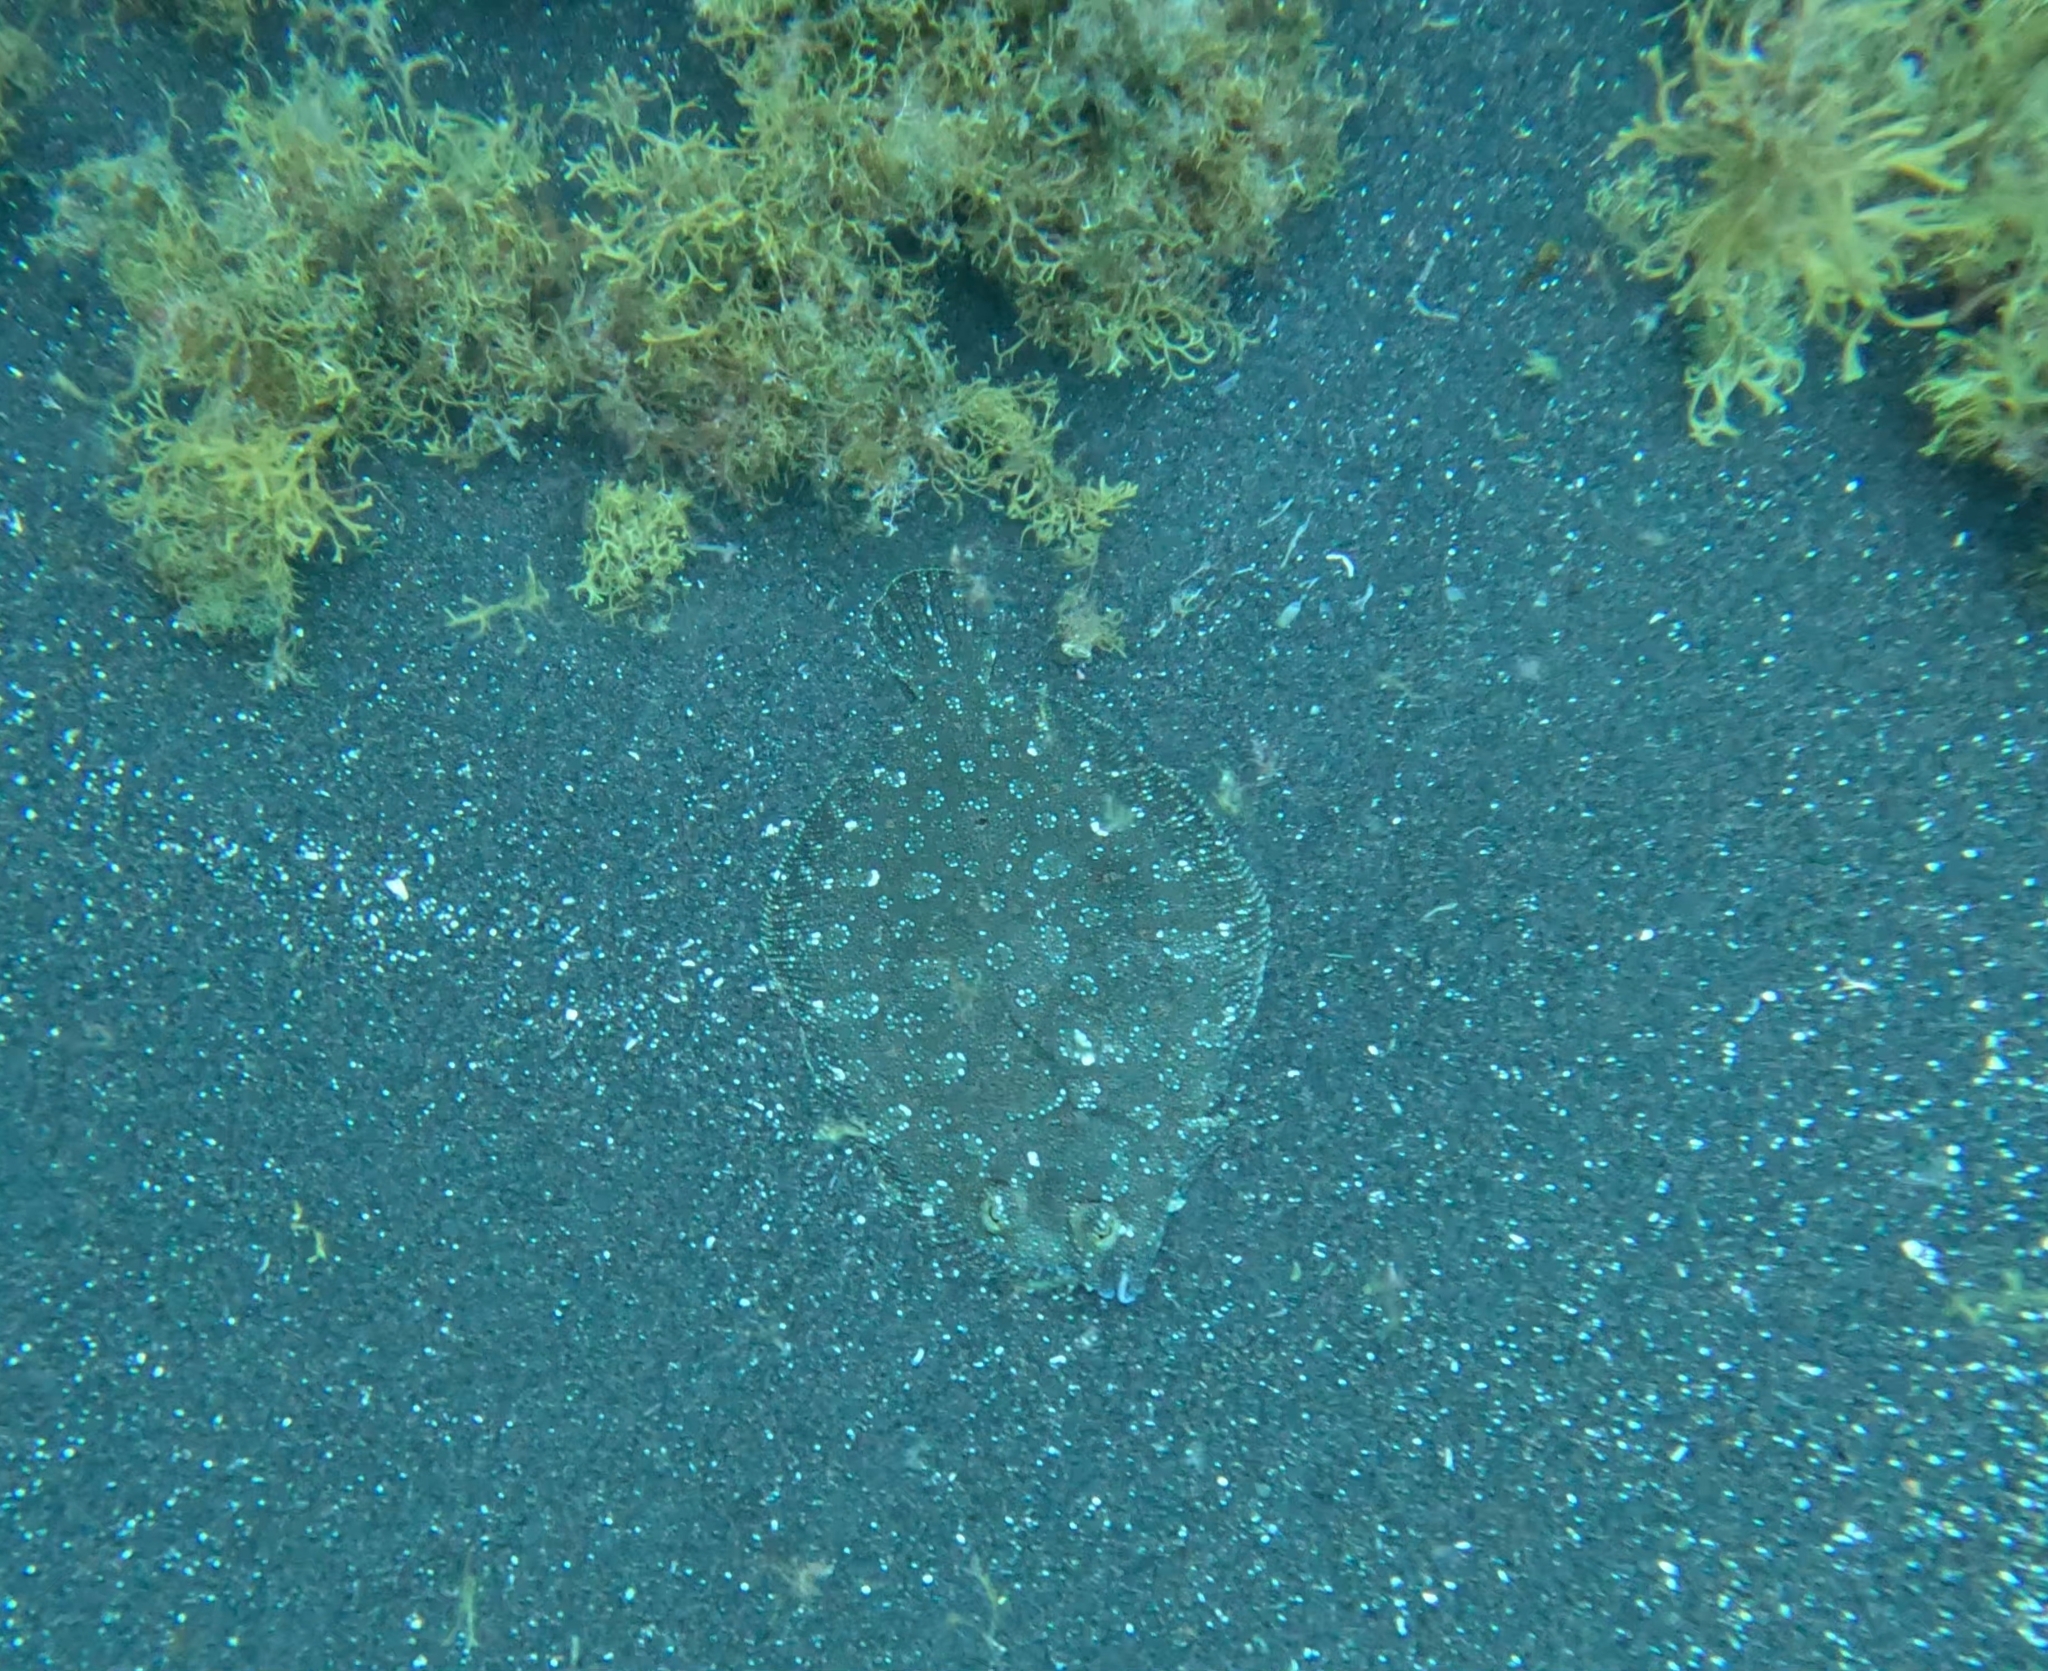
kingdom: Animalia
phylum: Chordata
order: Pleuronectiformes
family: Bothidae
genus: Bothus
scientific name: Bothus podas
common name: Wide-eyed flounder
